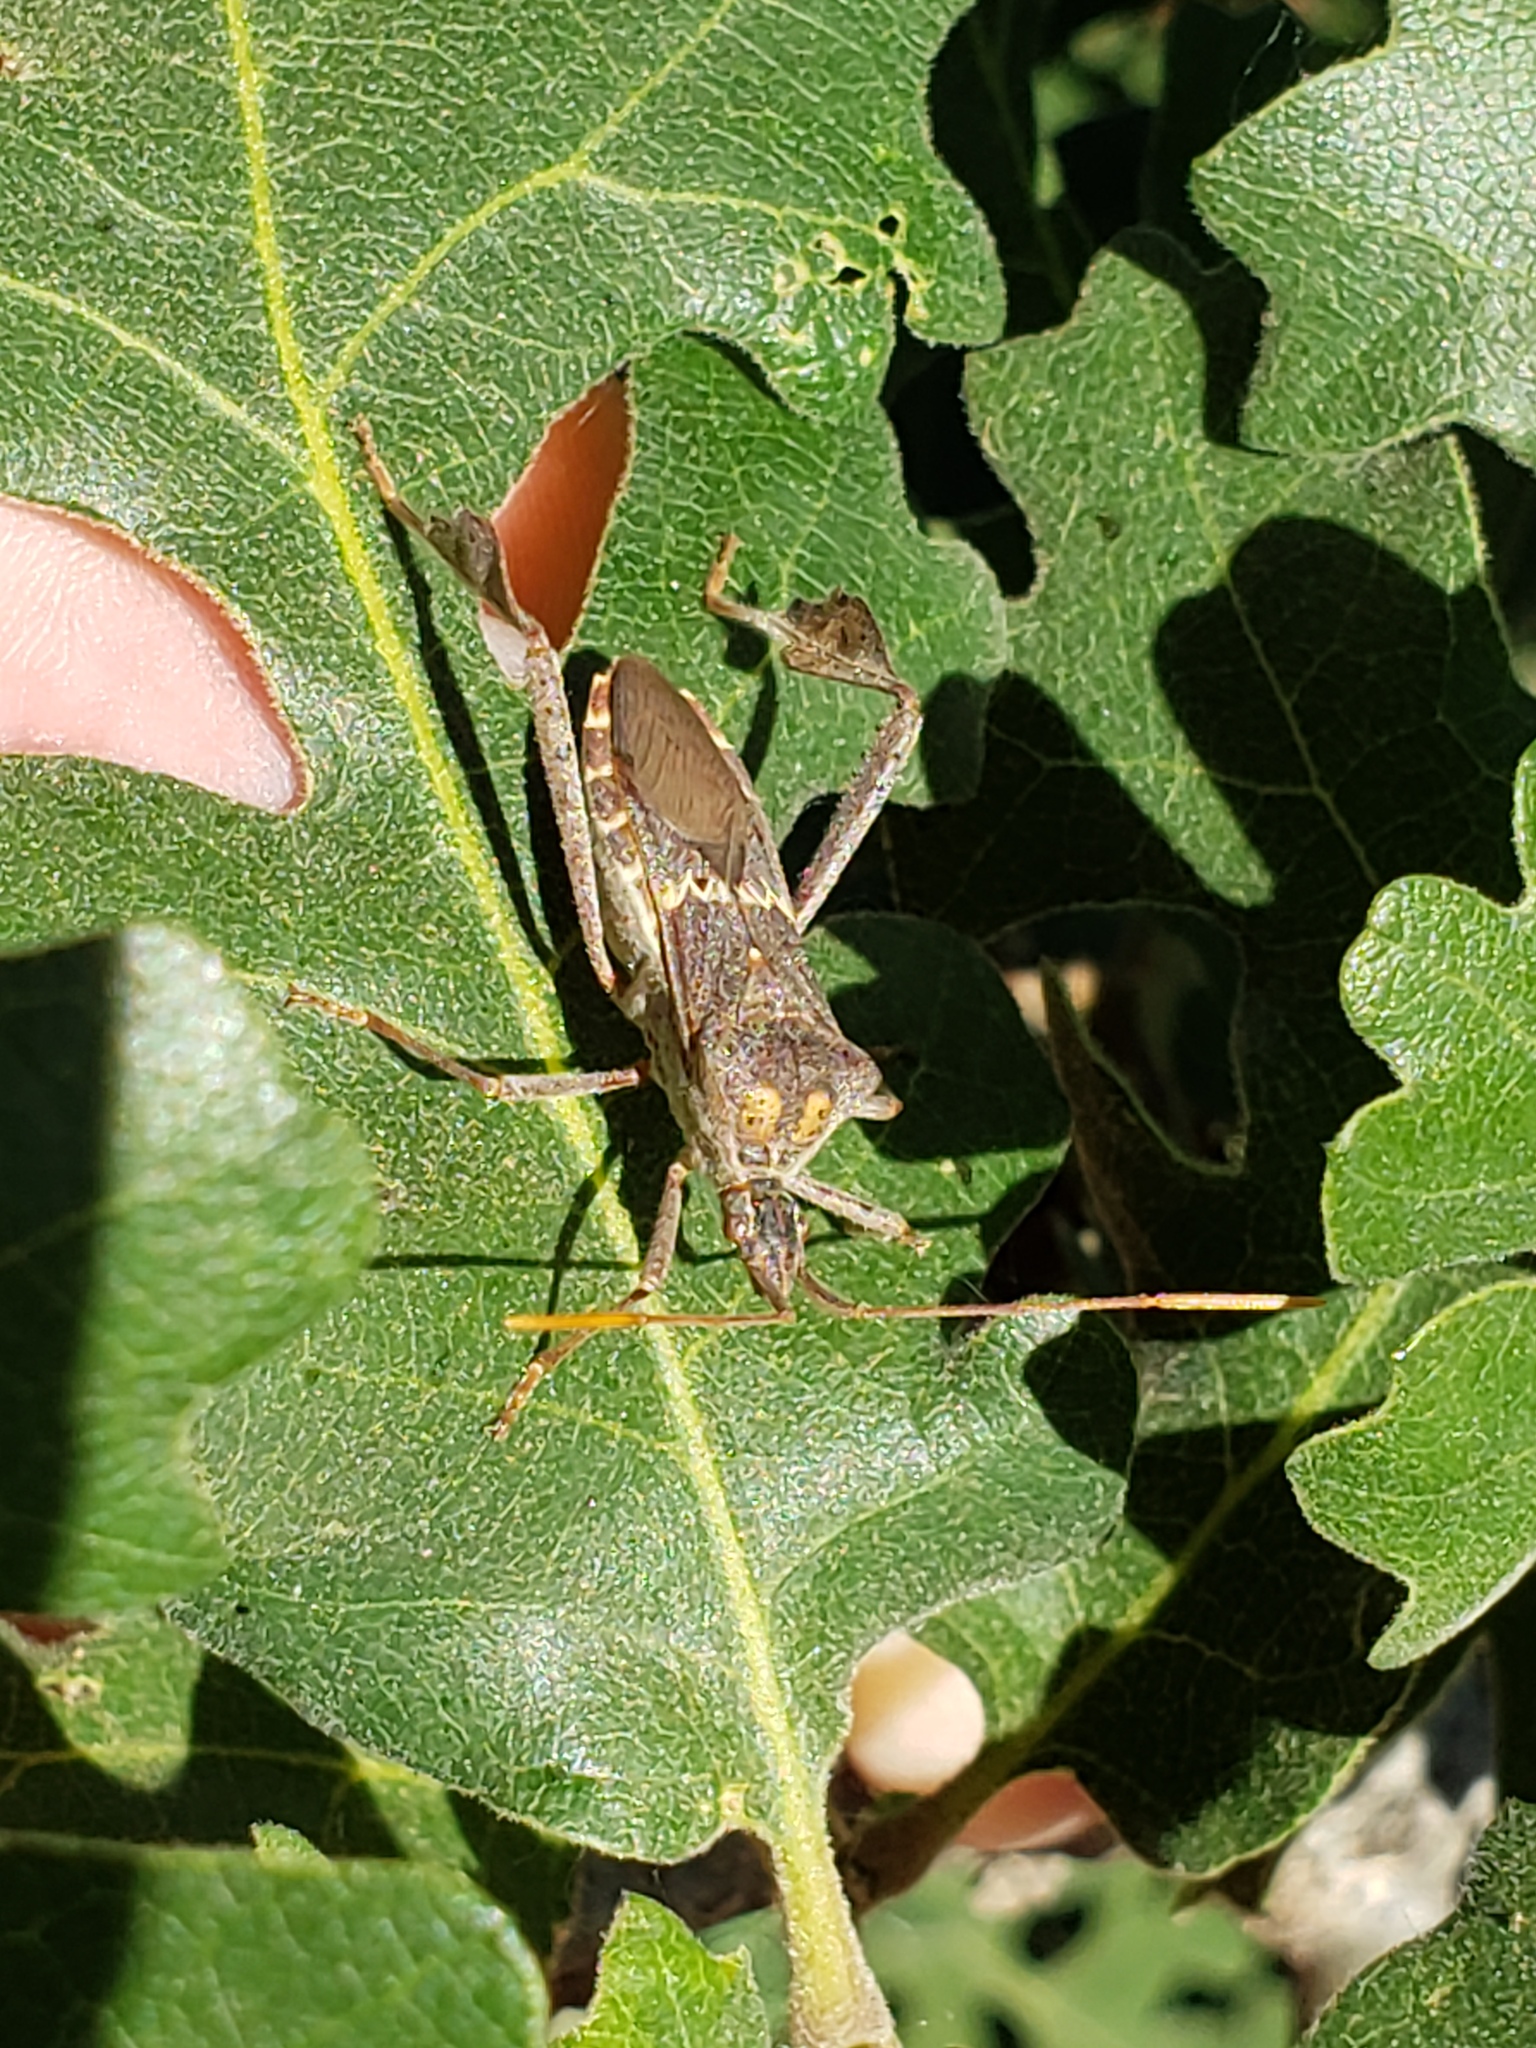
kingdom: Animalia
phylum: Arthropoda
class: Insecta
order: Hemiptera
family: Coreidae
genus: Leptoglossus
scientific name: Leptoglossus zonatus
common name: Large-legged bug
